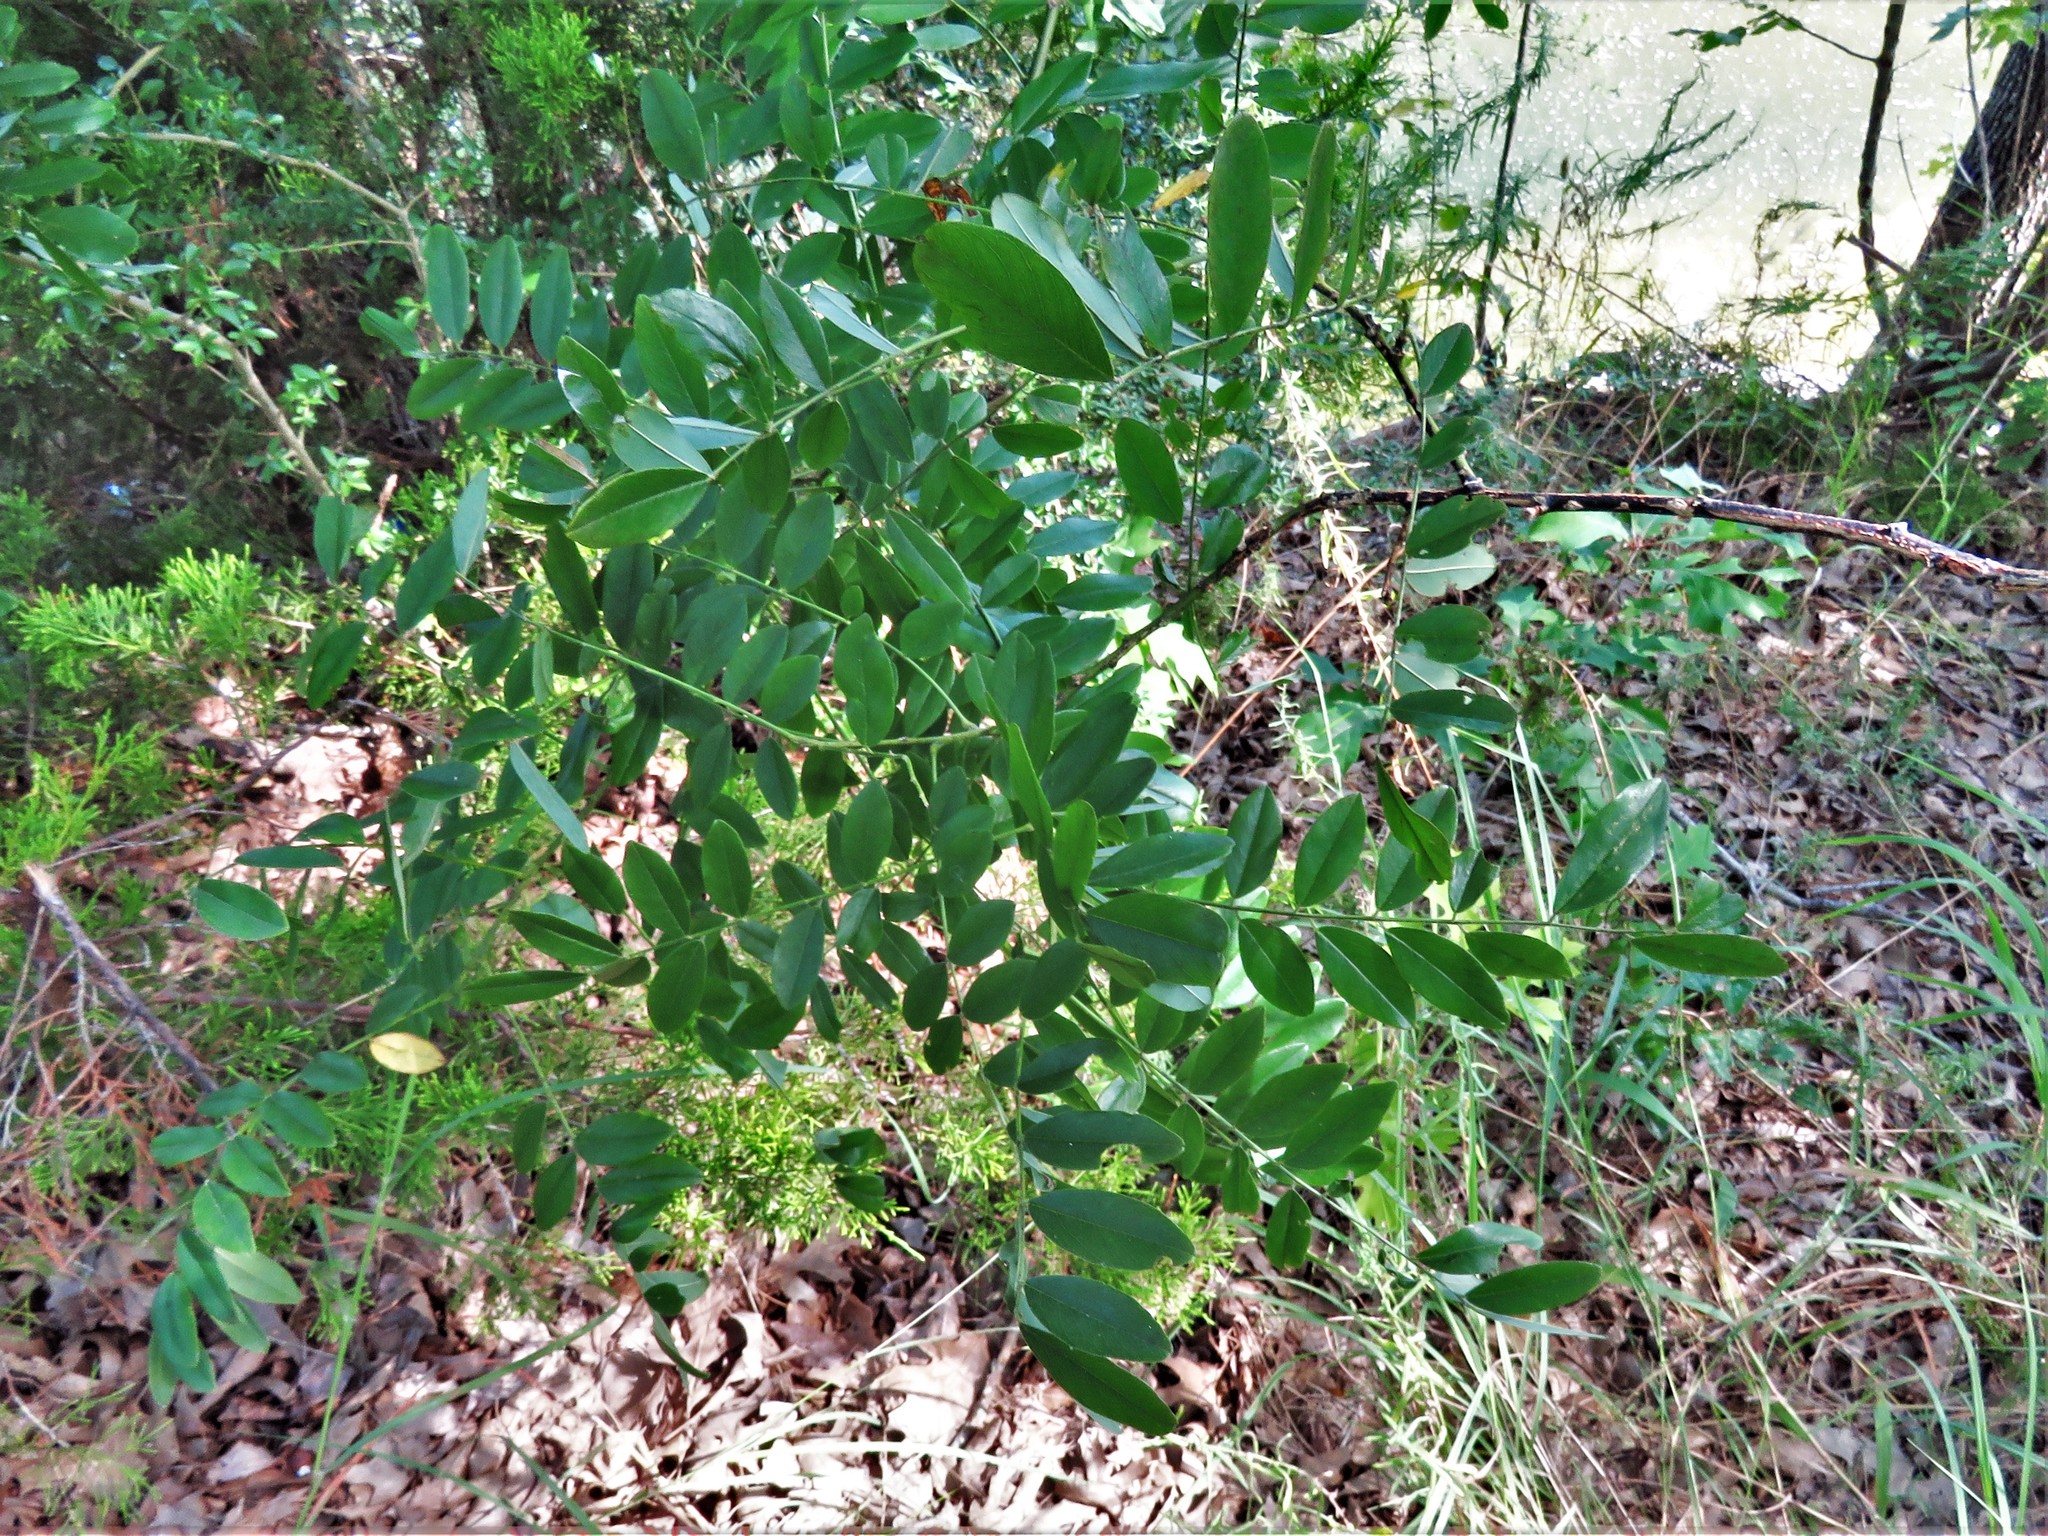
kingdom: Plantae
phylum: Tracheophyta
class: Magnoliopsida
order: Fabales
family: Fabaceae
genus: Styphnolobium
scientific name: Styphnolobium affine
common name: Texas sophora
